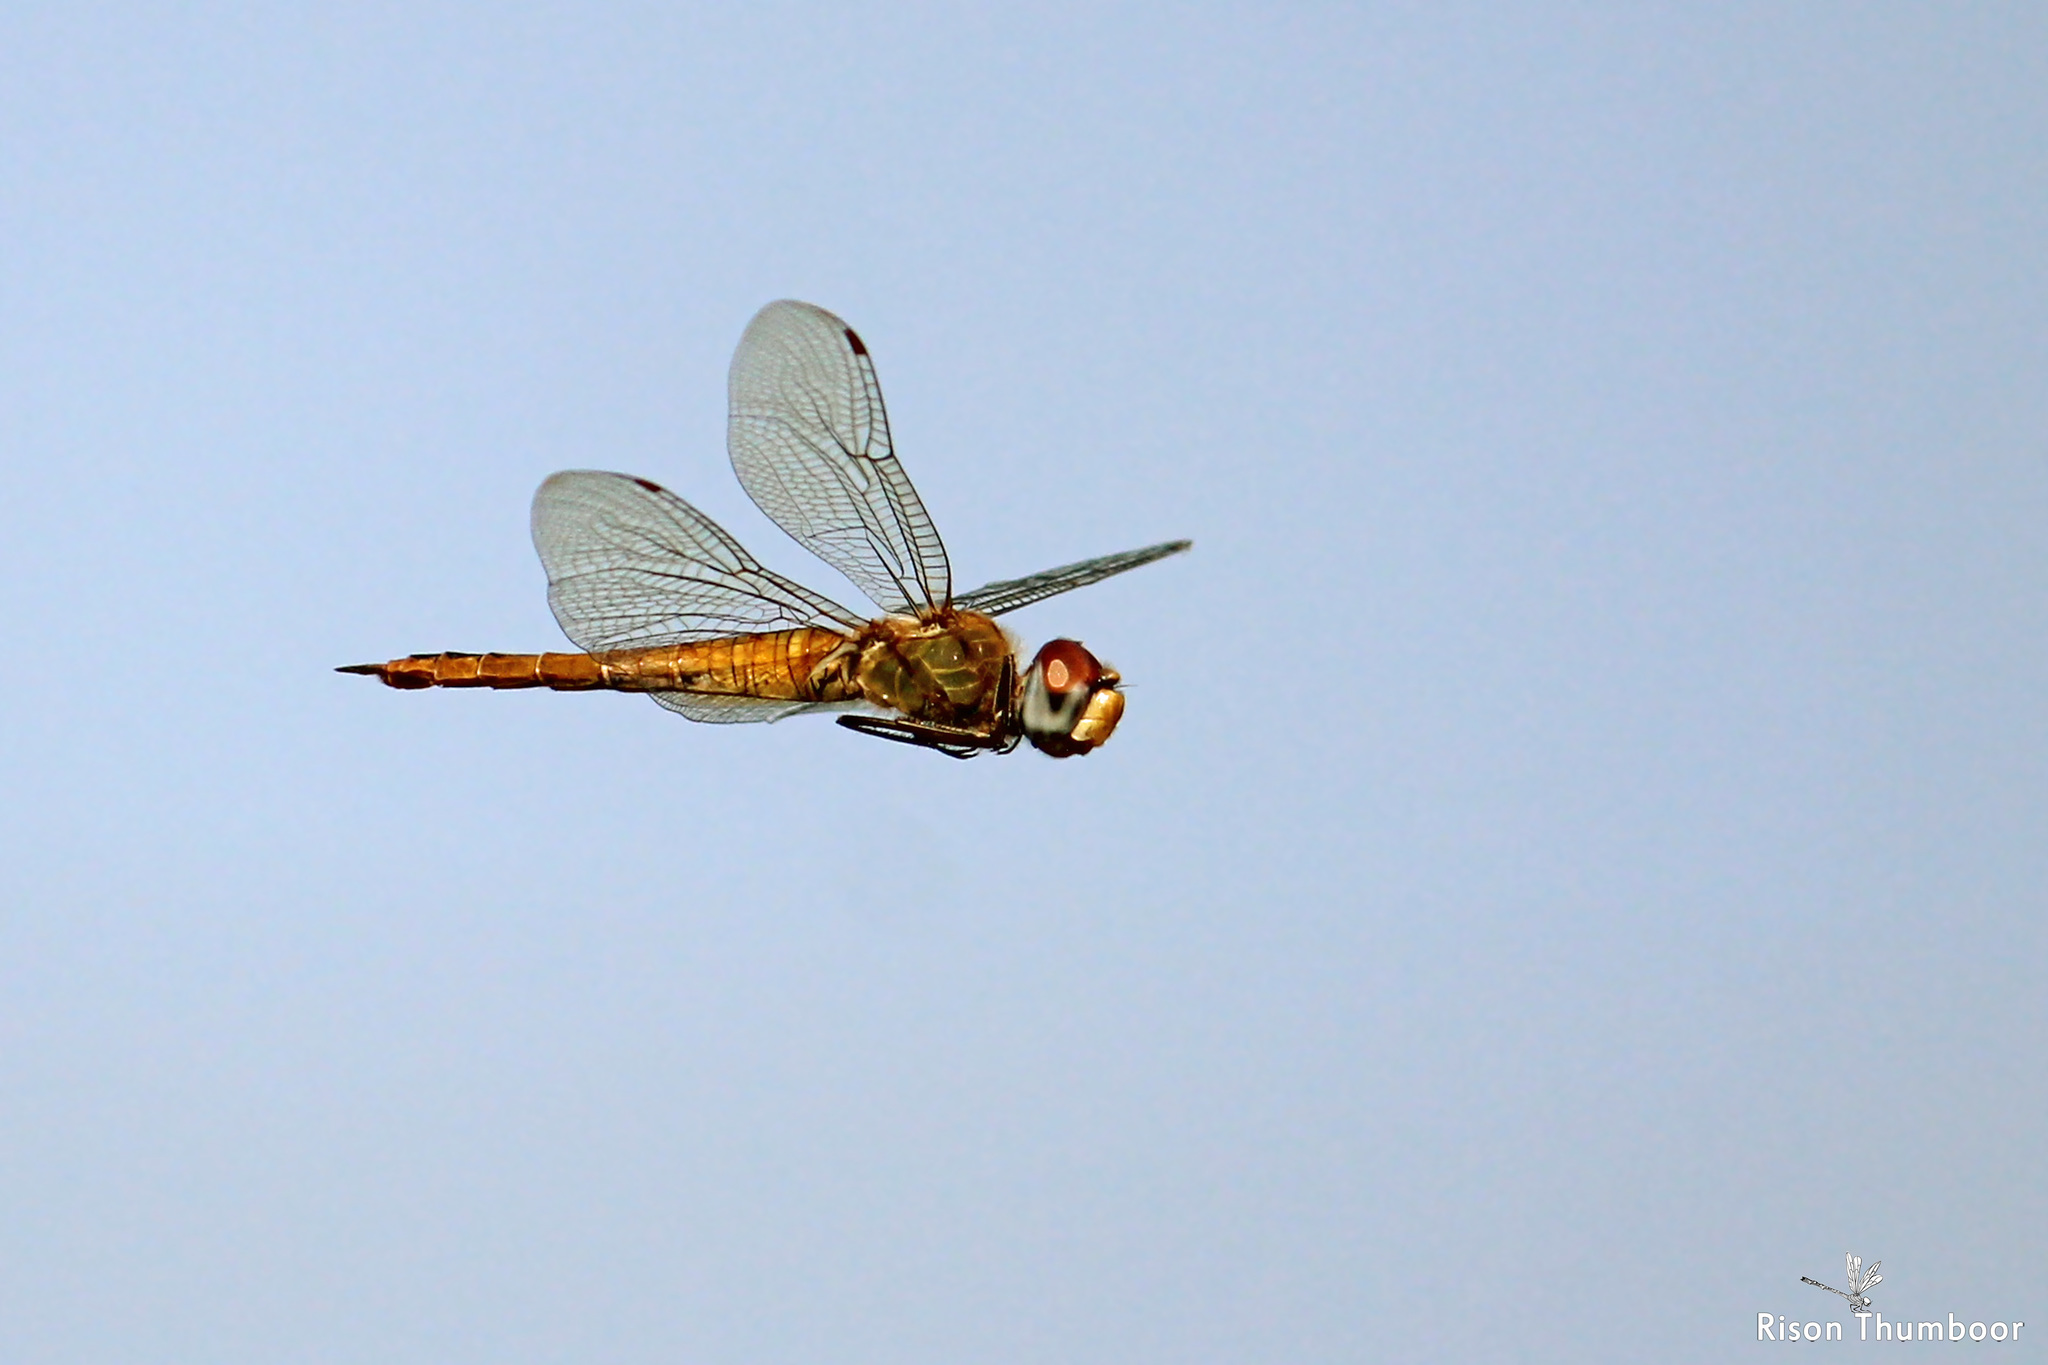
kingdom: Animalia
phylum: Arthropoda
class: Insecta
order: Odonata
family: Libellulidae
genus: Pantala
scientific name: Pantala flavescens
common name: Wandering glider
